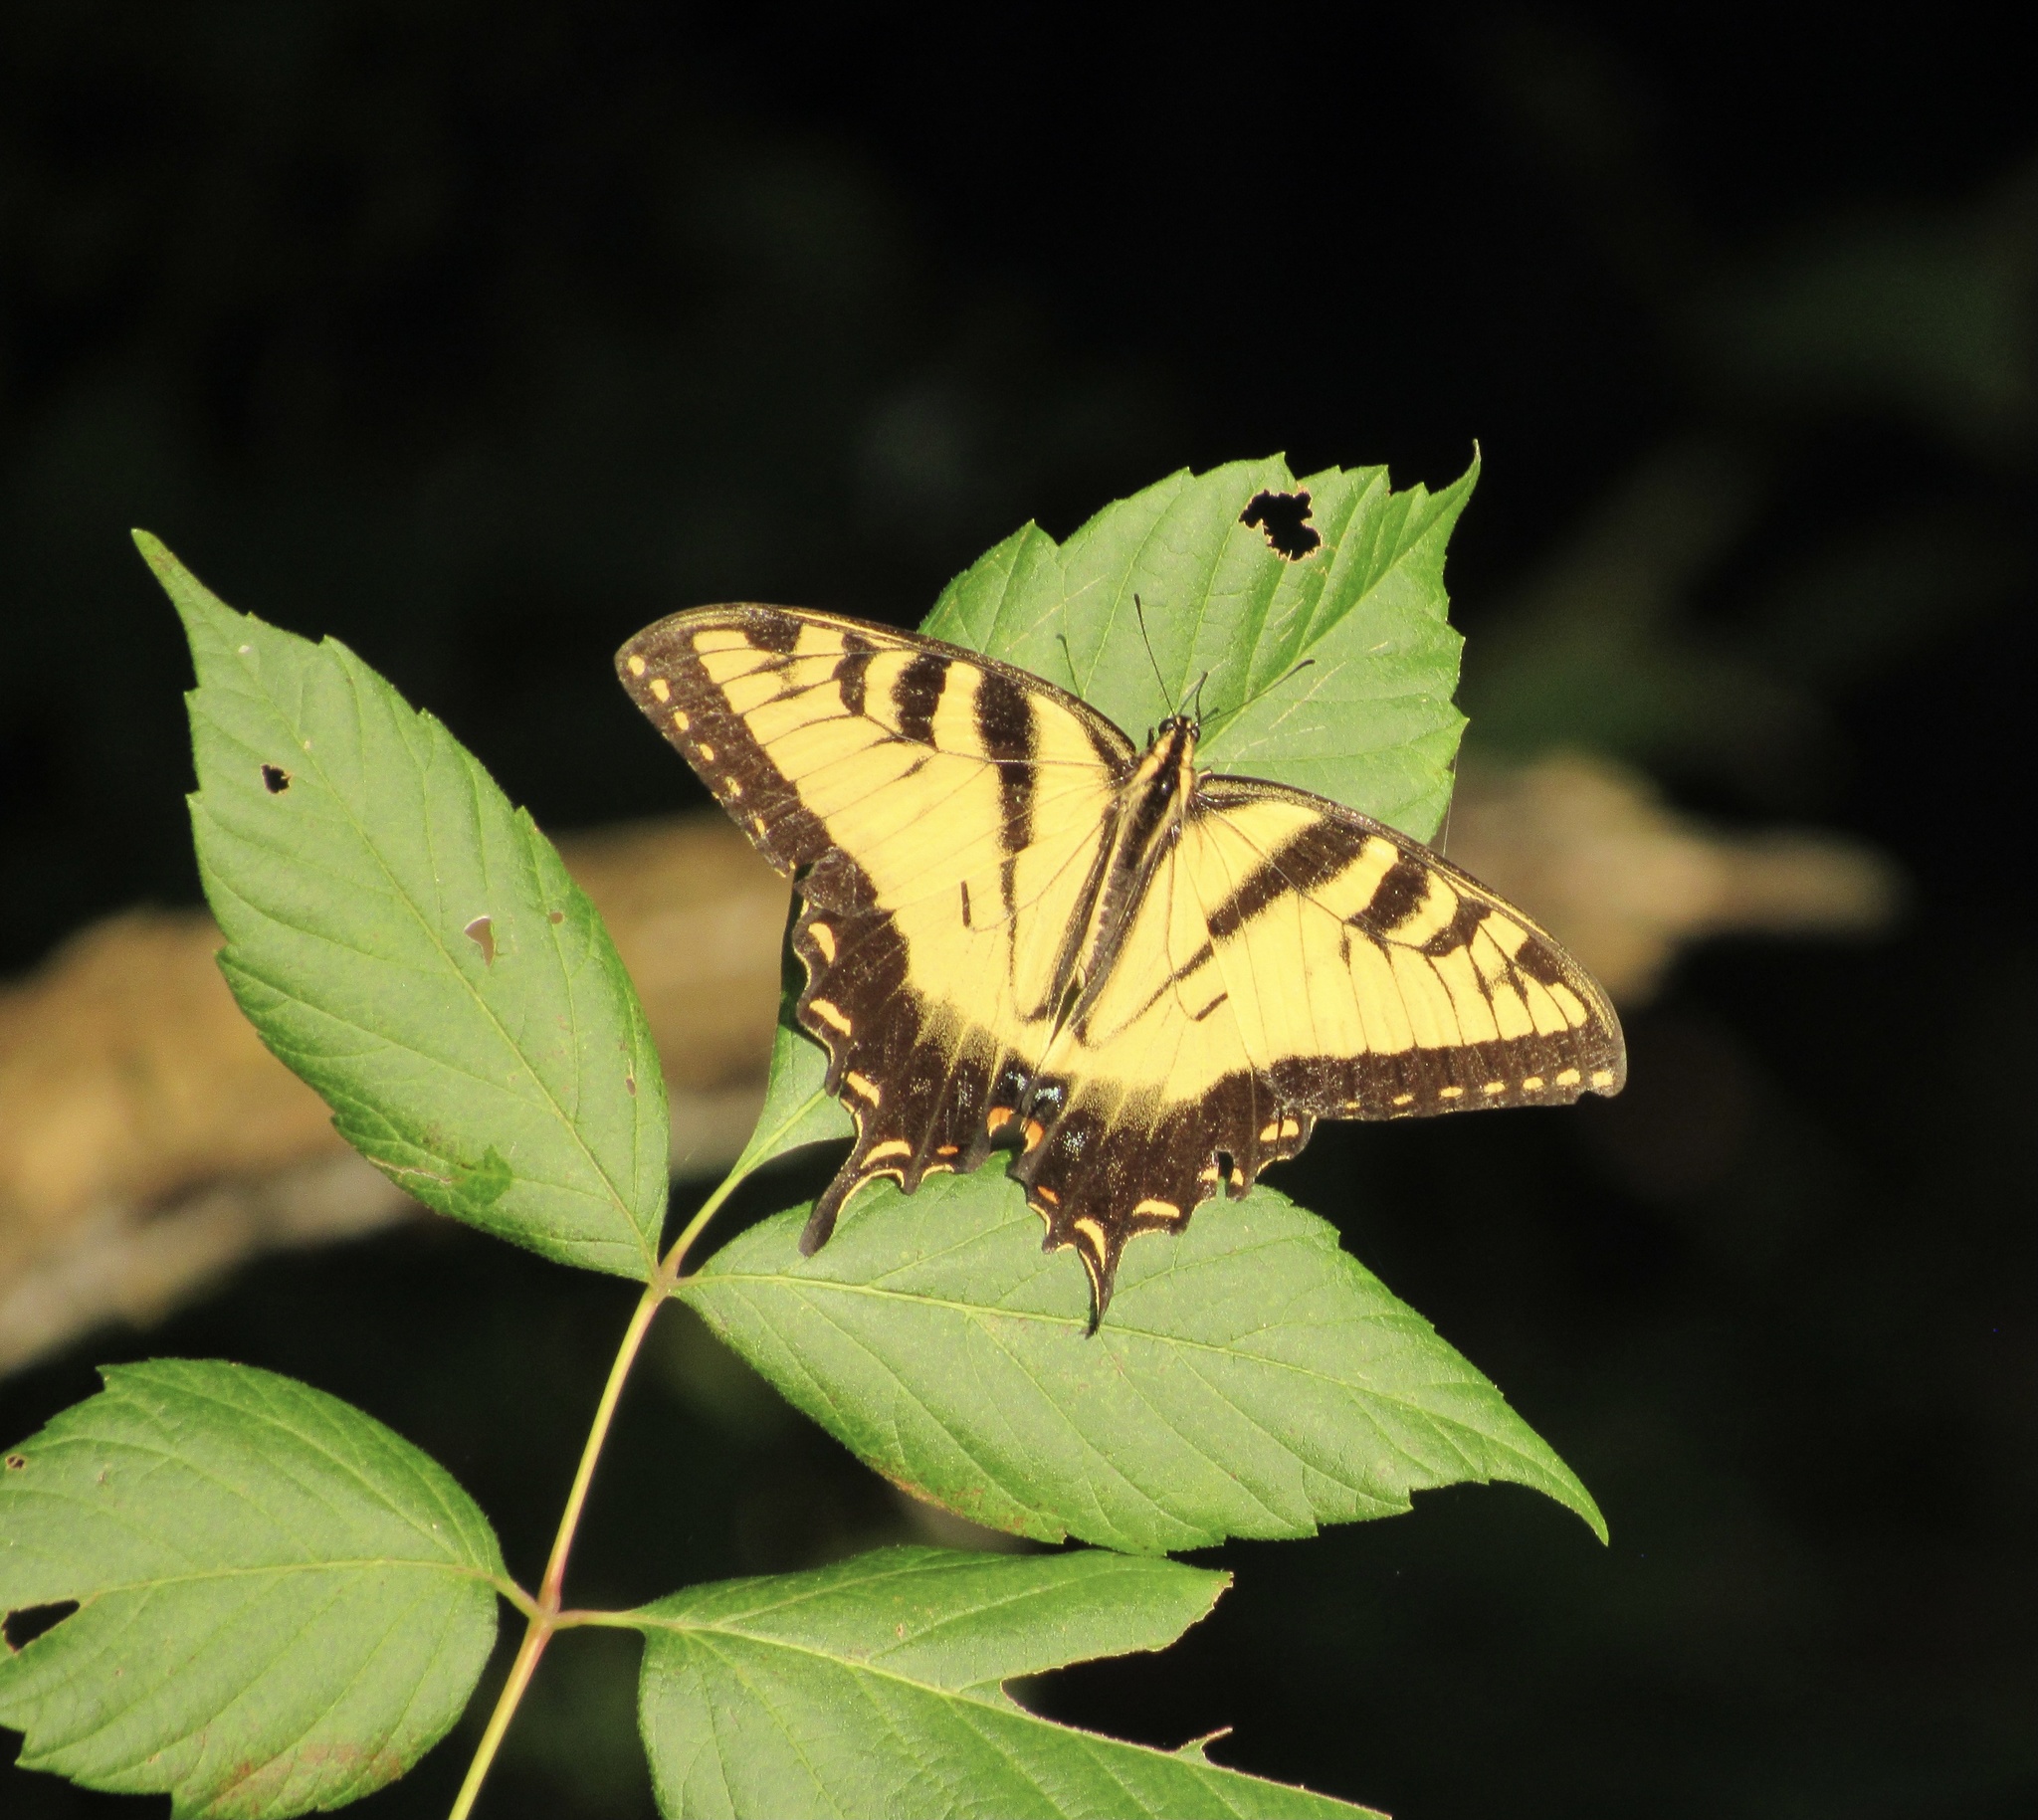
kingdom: Animalia
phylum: Arthropoda
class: Insecta
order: Lepidoptera
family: Papilionidae
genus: Papilio
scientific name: Papilio glaucus
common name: Tiger swallowtail
